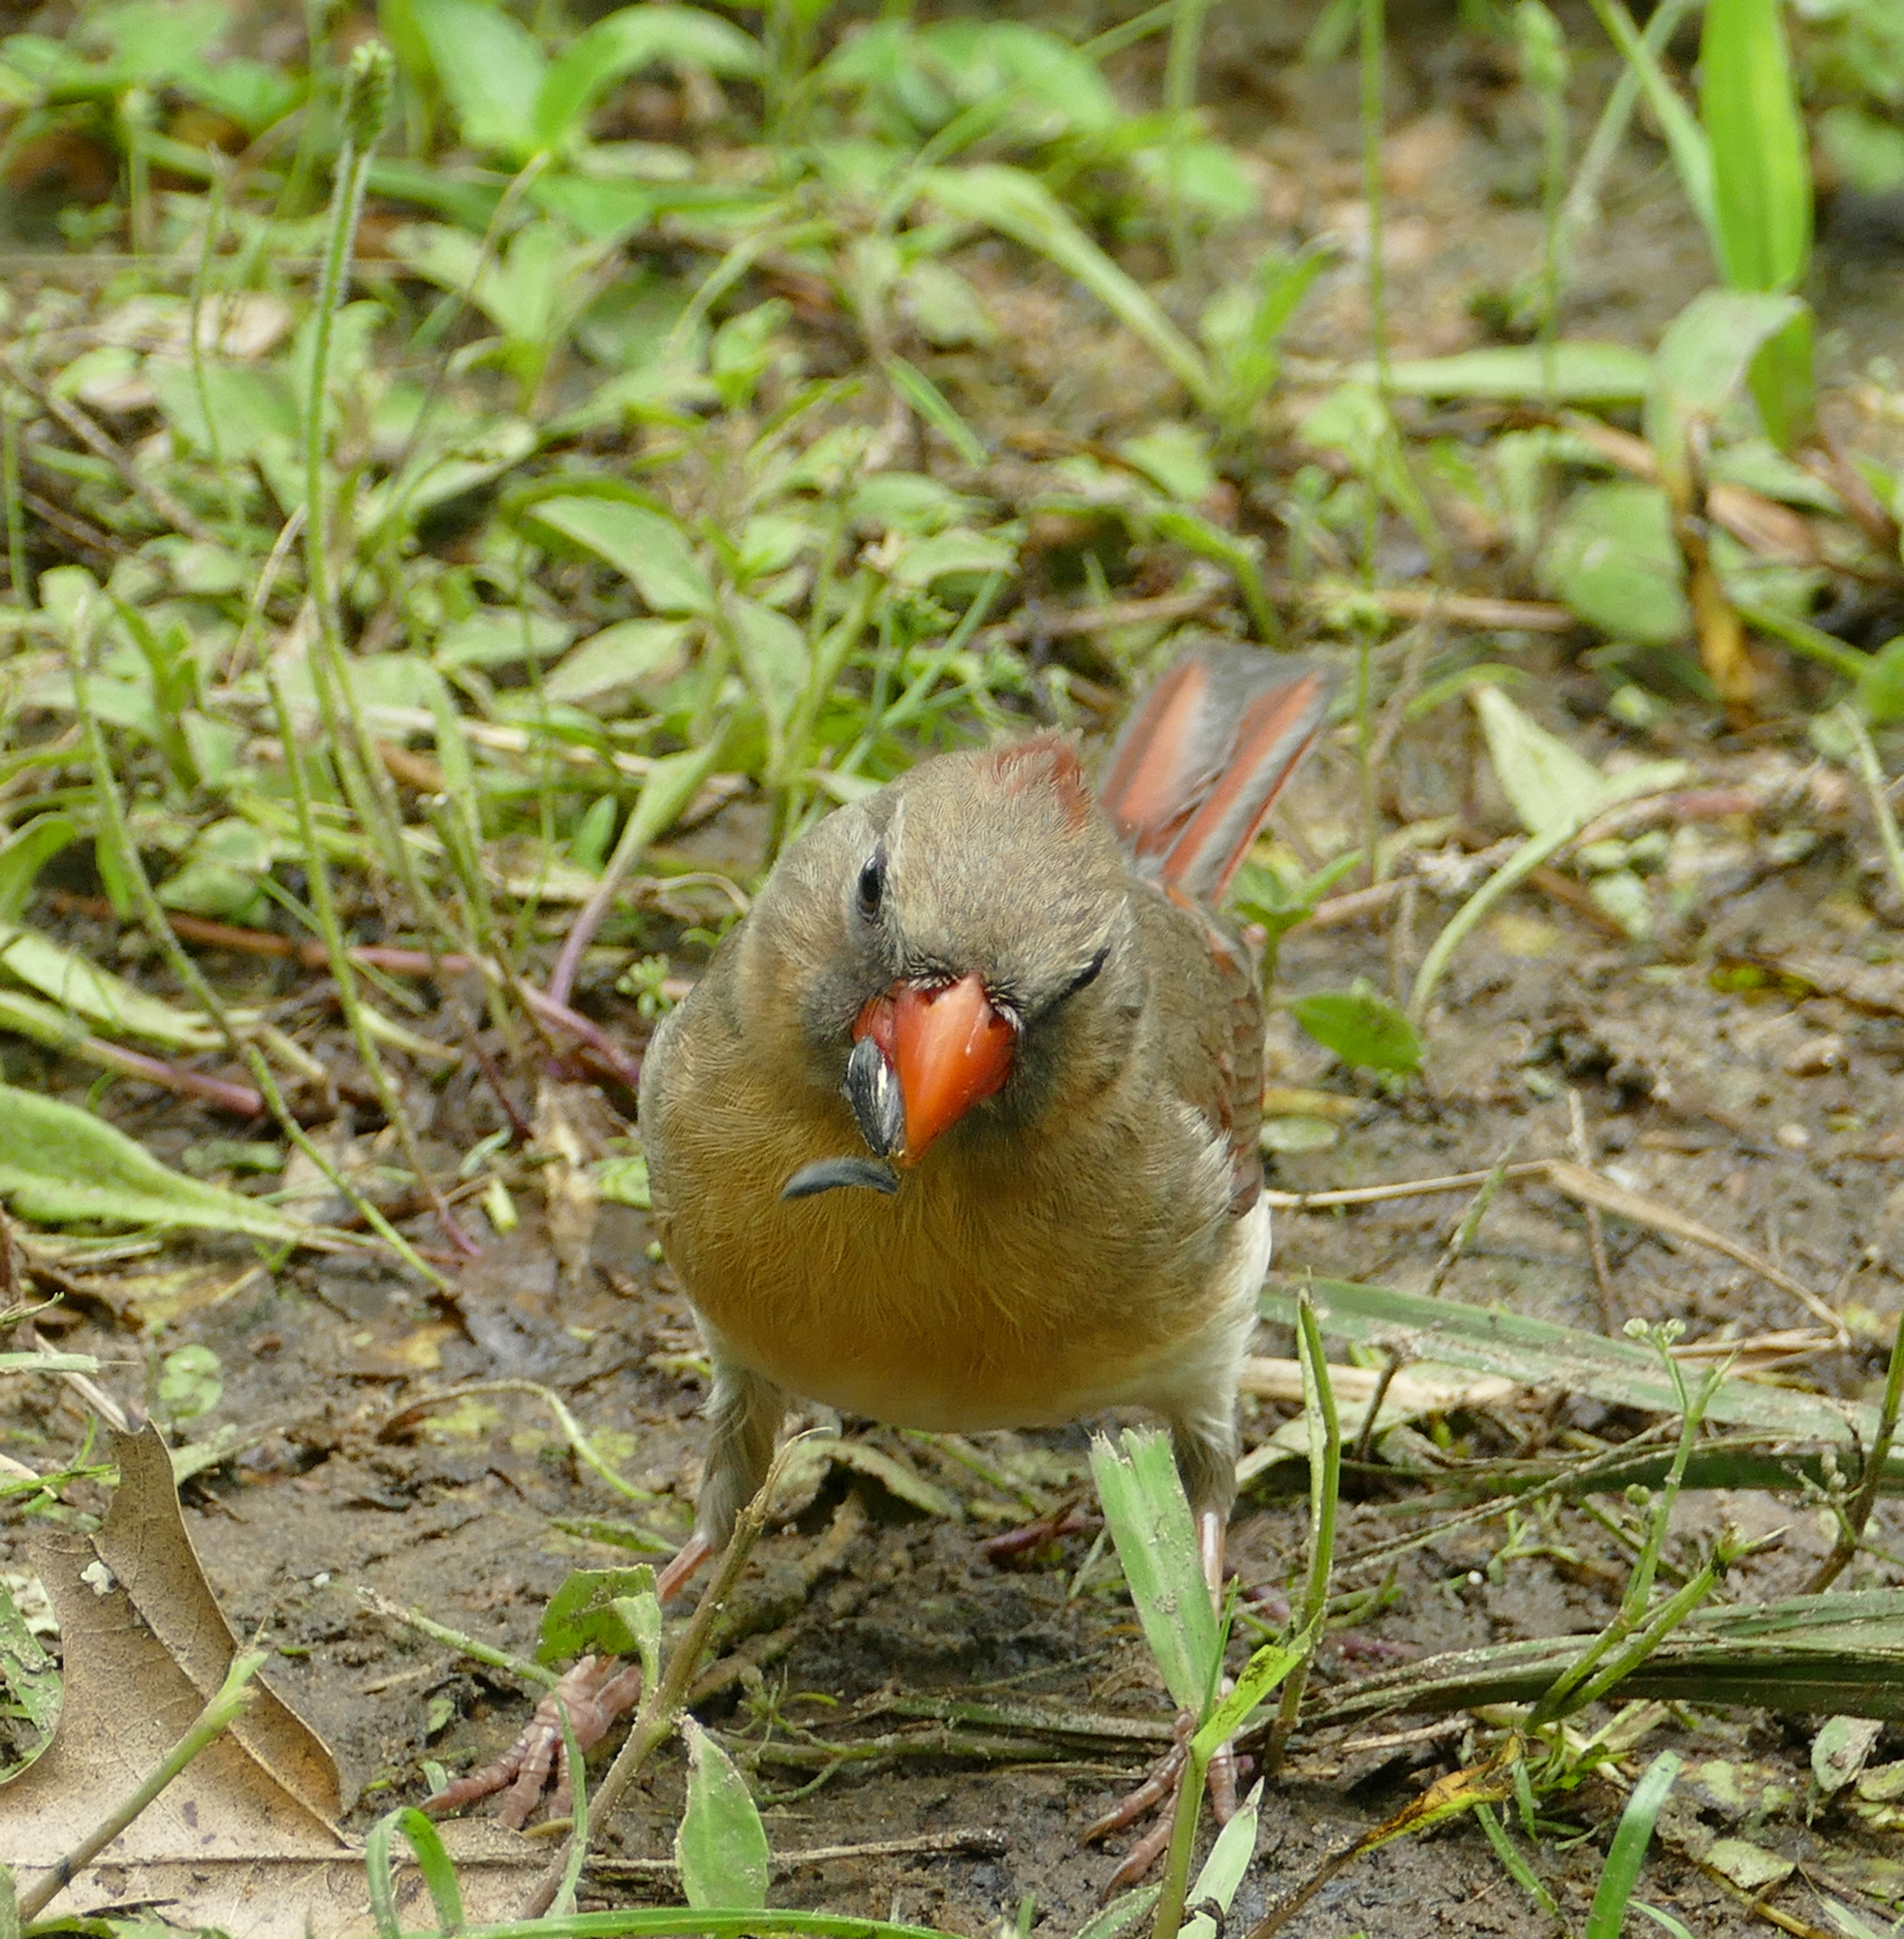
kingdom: Animalia
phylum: Chordata
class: Aves
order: Passeriformes
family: Cardinalidae
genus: Cardinalis
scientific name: Cardinalis cardinalis
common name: Northern cardinal
